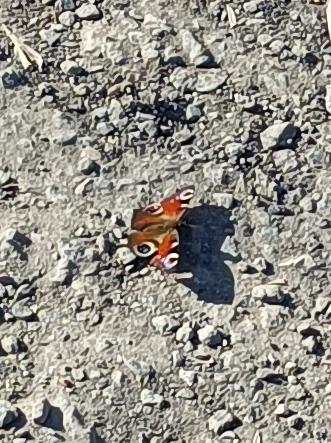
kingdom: Animalia
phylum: Arthropoda
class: Insecta
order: Lepidoptera
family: Nymphalidae
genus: Aglais
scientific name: Aglais io
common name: Peacock
